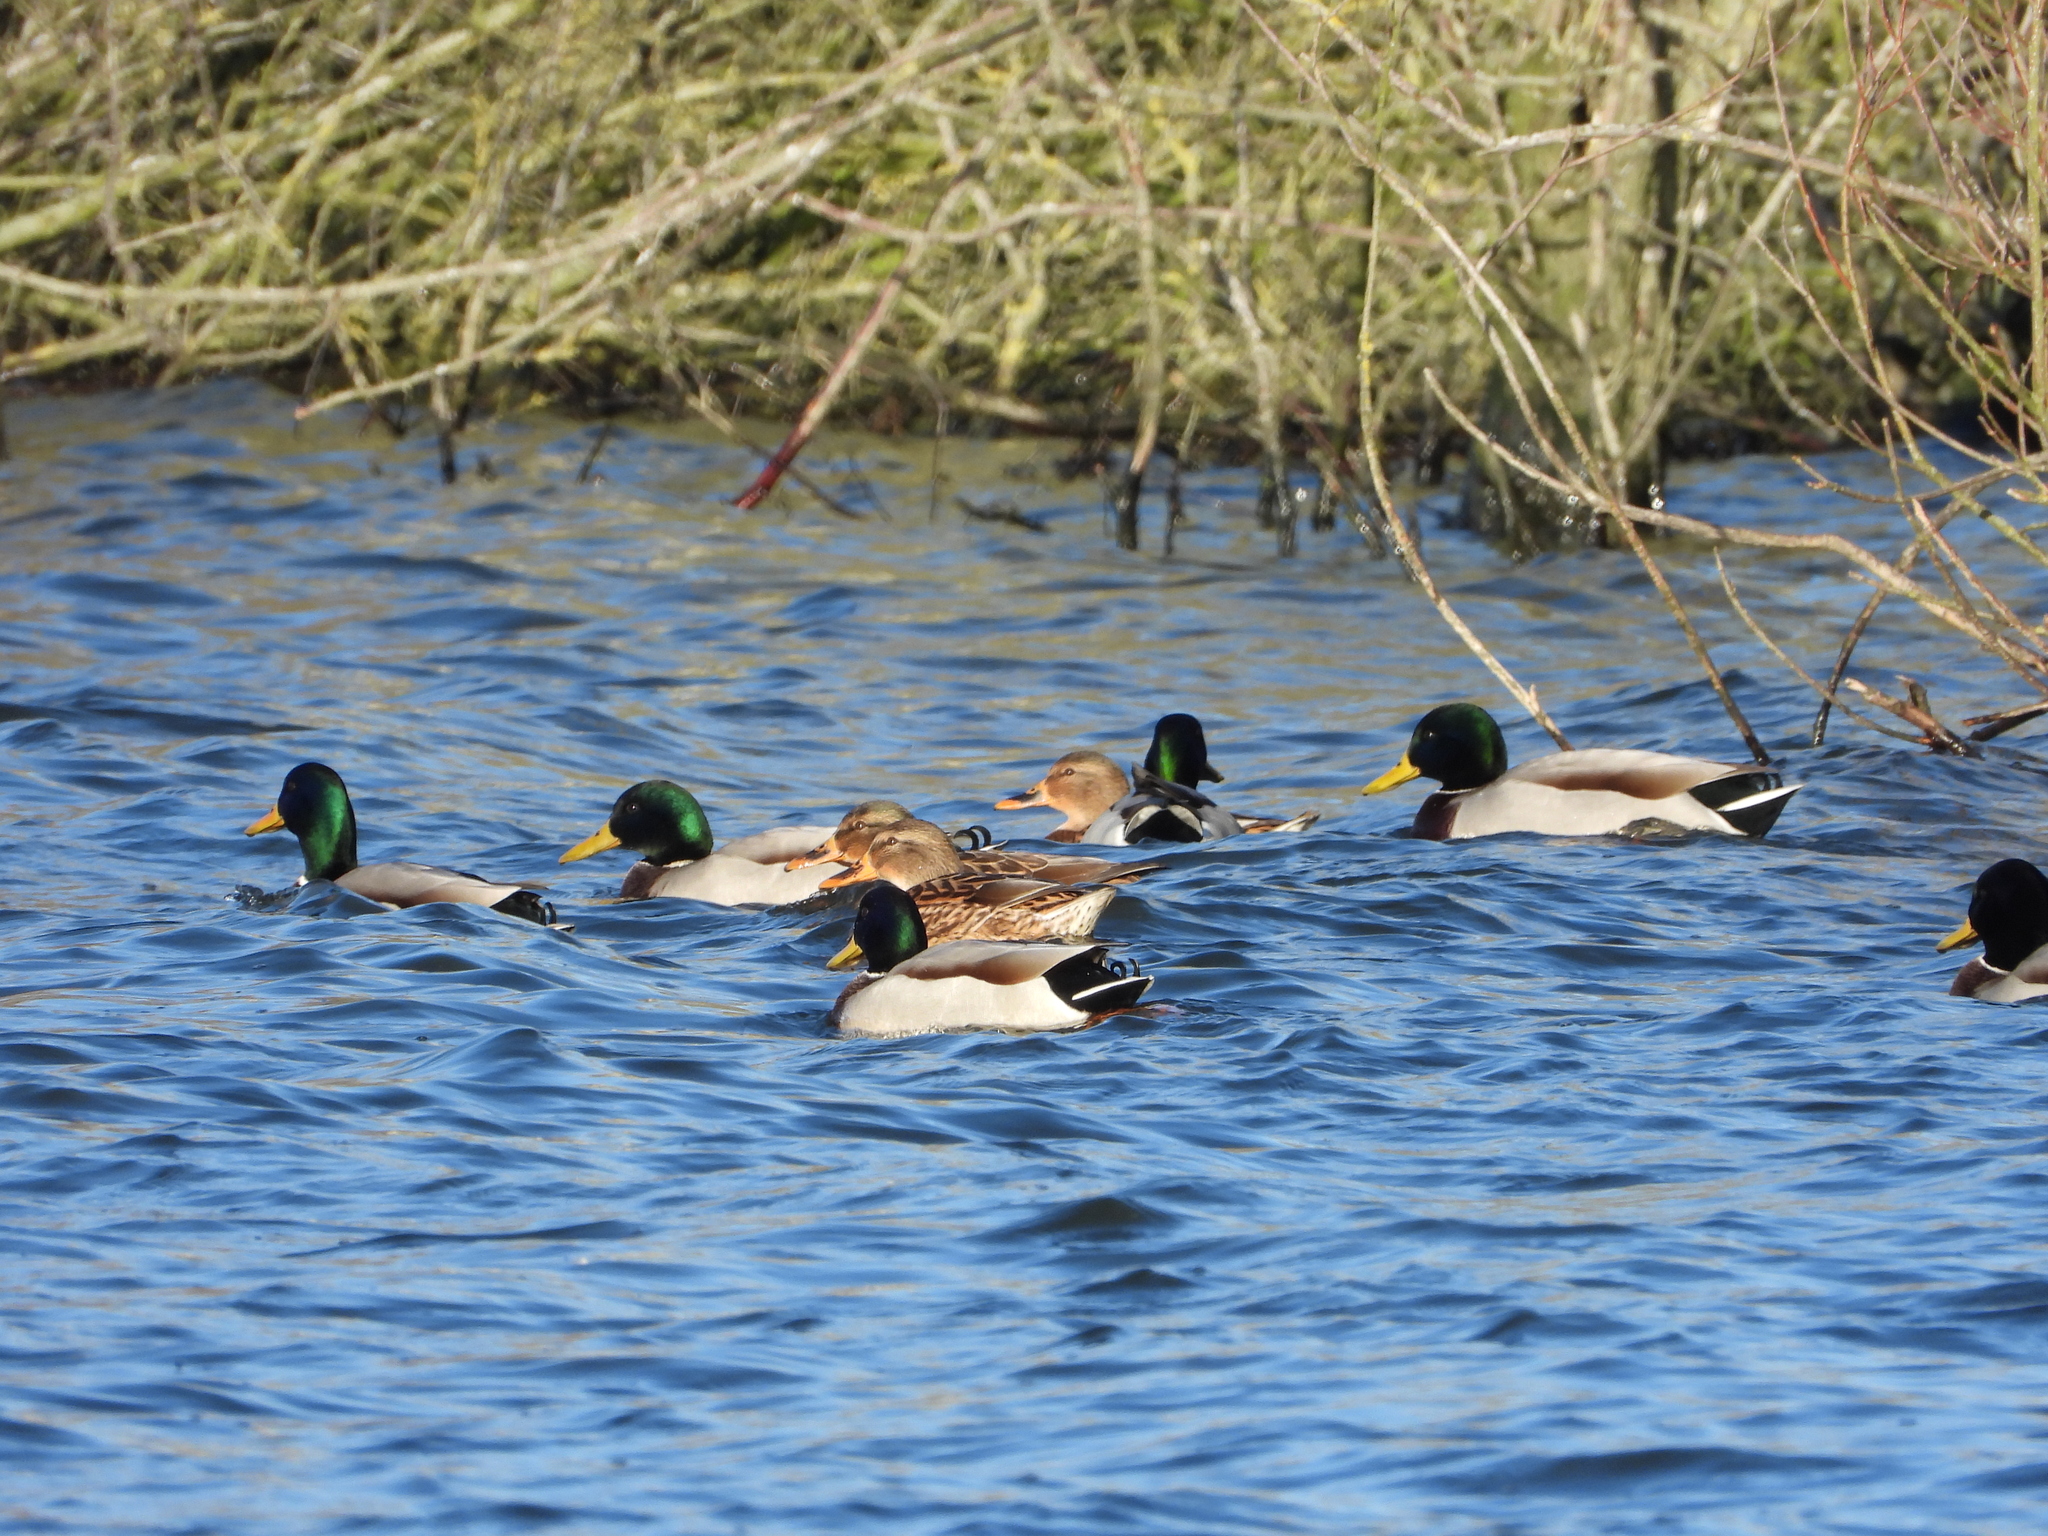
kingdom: Animalia
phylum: Chordata
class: Aves
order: Anseriformes
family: Anatidae
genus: Anas
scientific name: Anas platyrhynchos
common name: Mallard
